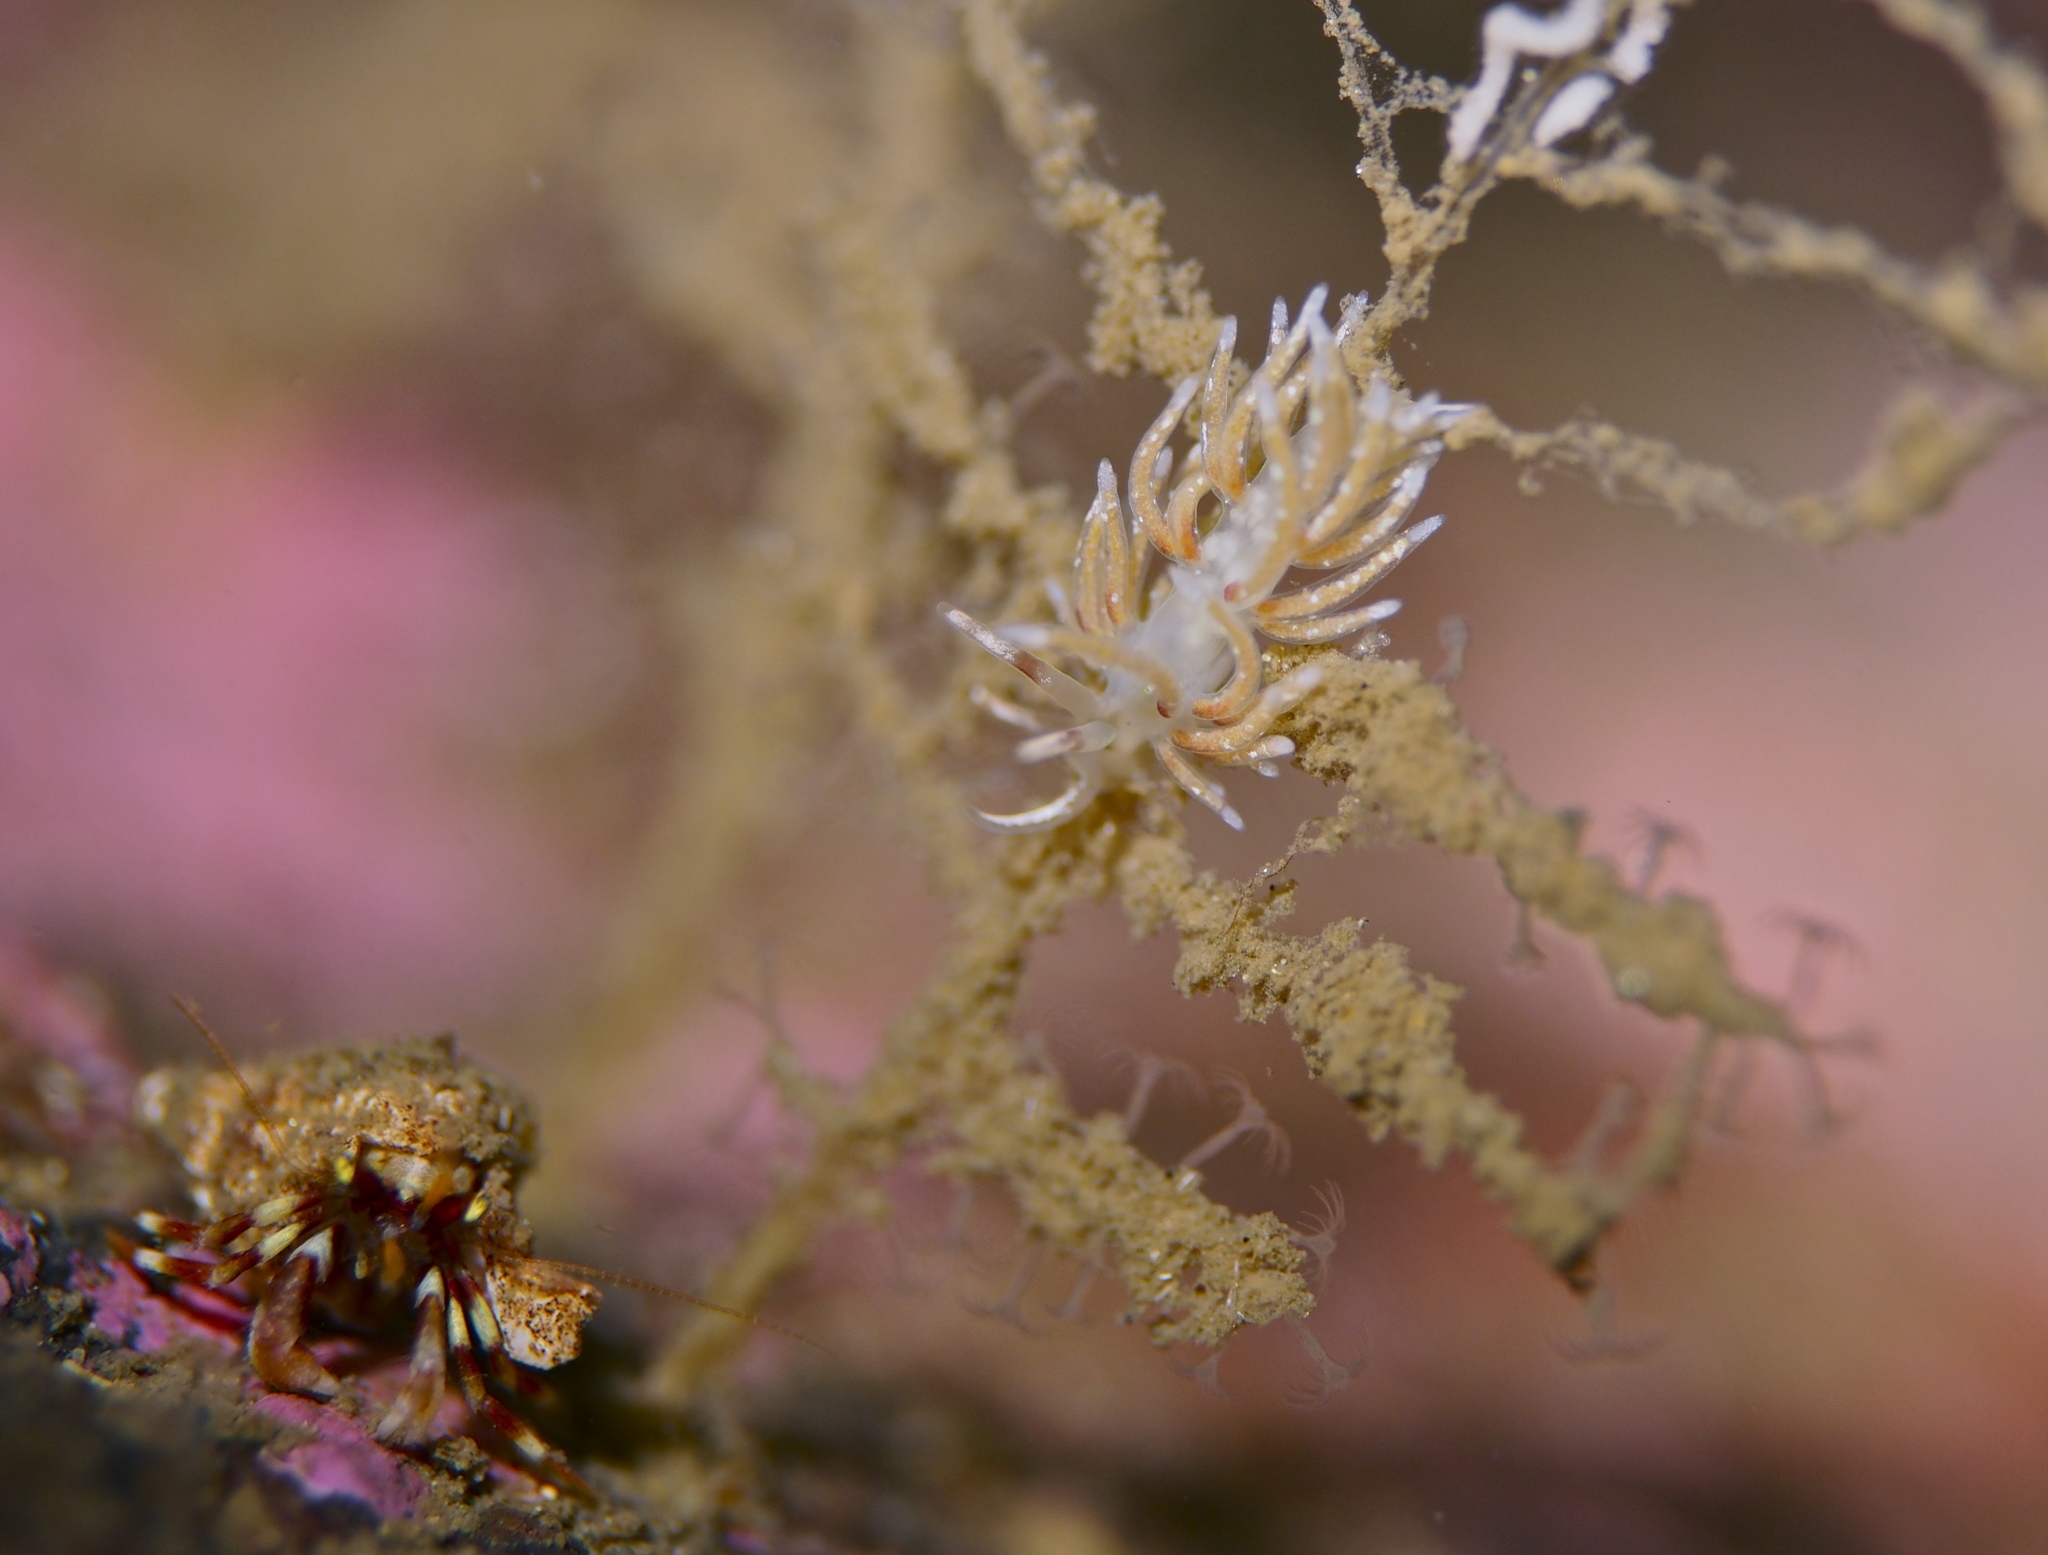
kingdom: Animalia
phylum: Mollusca
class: Gastropoda
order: Nudibranchia
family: Trinchesiidae
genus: Rubramoena
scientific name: Rubramoena rubescens
